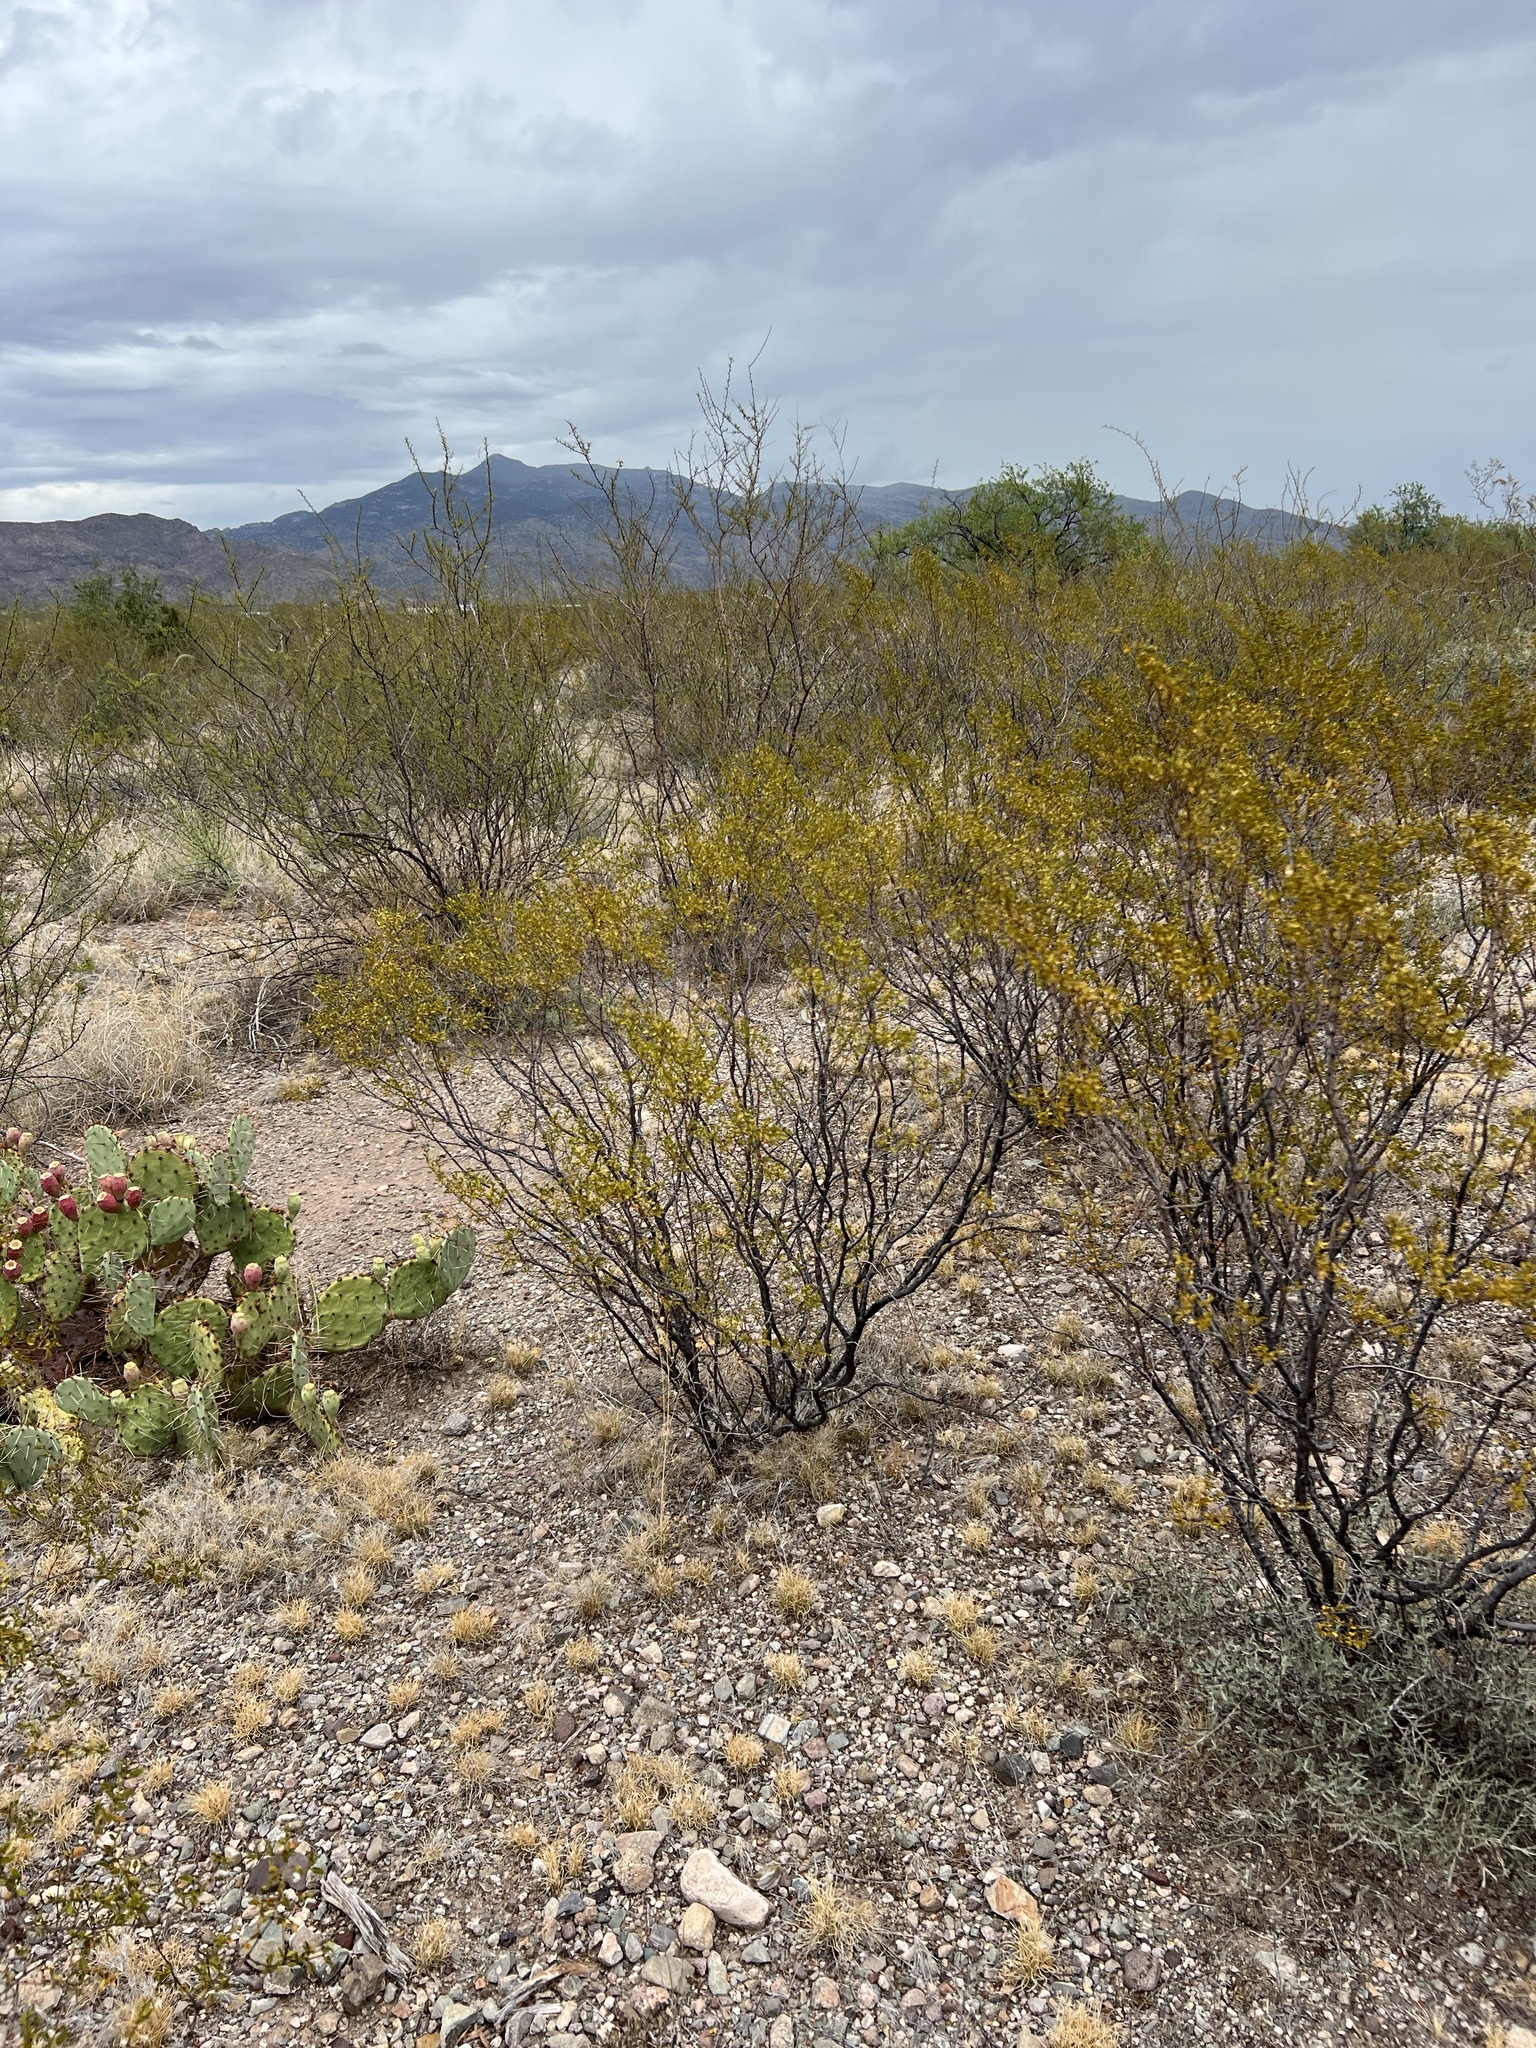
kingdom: Plantae
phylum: Tracheophyta
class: Magnoliopsida
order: Zygophyllales
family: Zygophyllaceae
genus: Larrea
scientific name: Larrea tridentata
